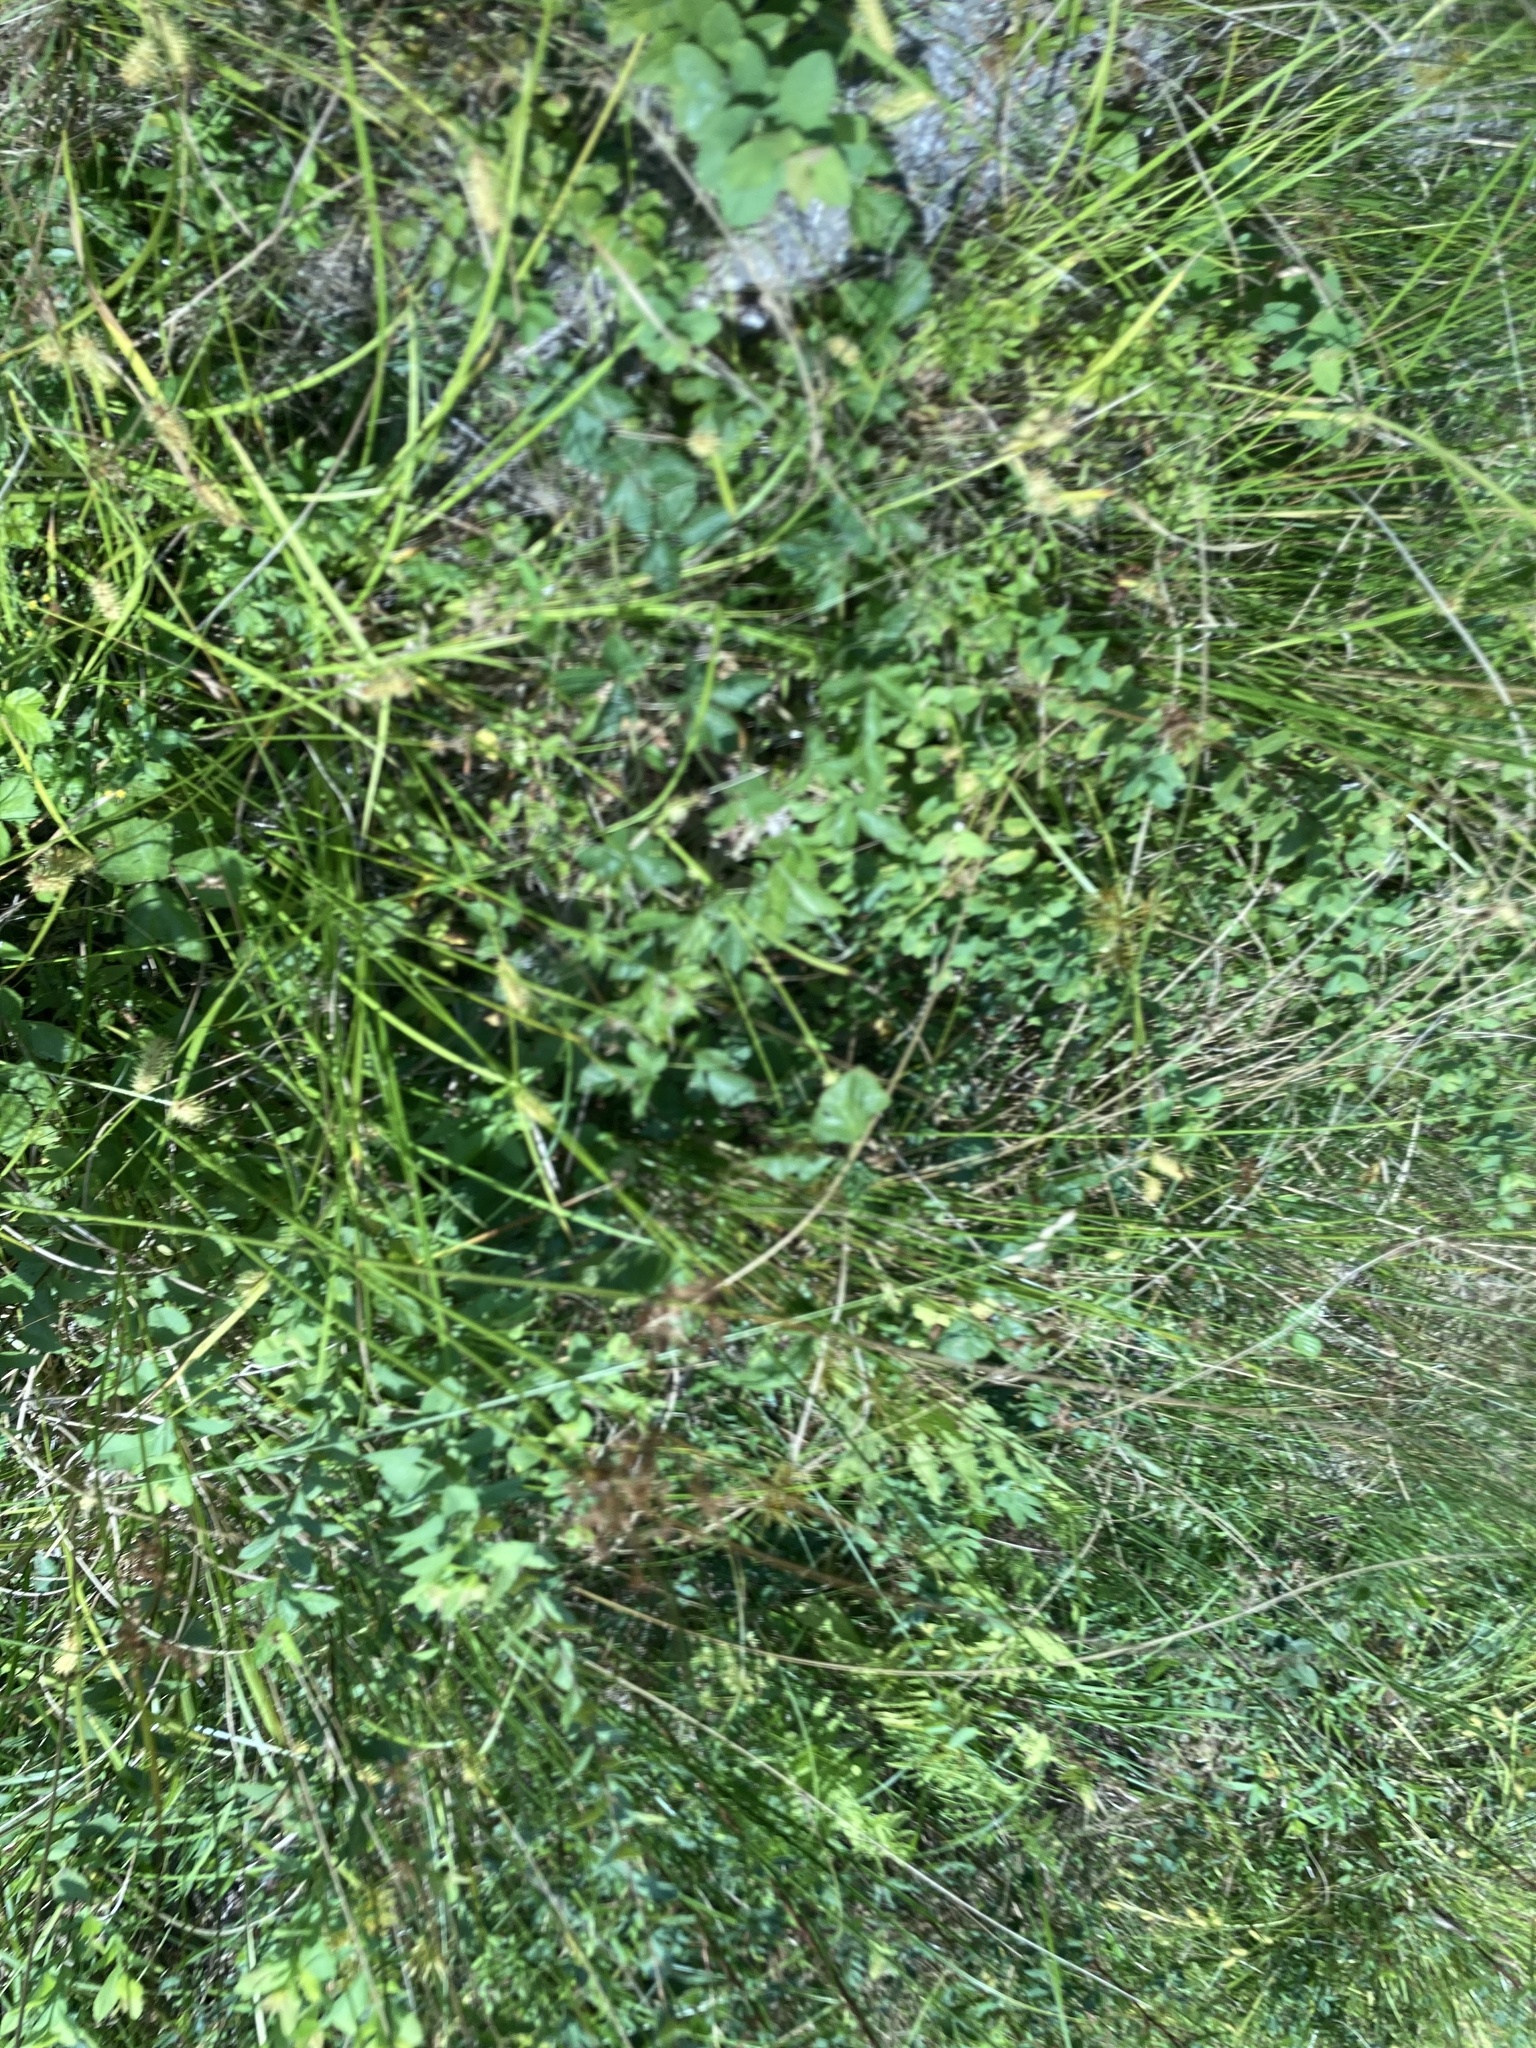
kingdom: Animalia
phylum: Arthropoda
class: Insecta
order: Hymenoptera
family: Halictidae
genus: Agapostemon
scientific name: Agapostemon virescens
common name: Bicolored striped sweat bee
